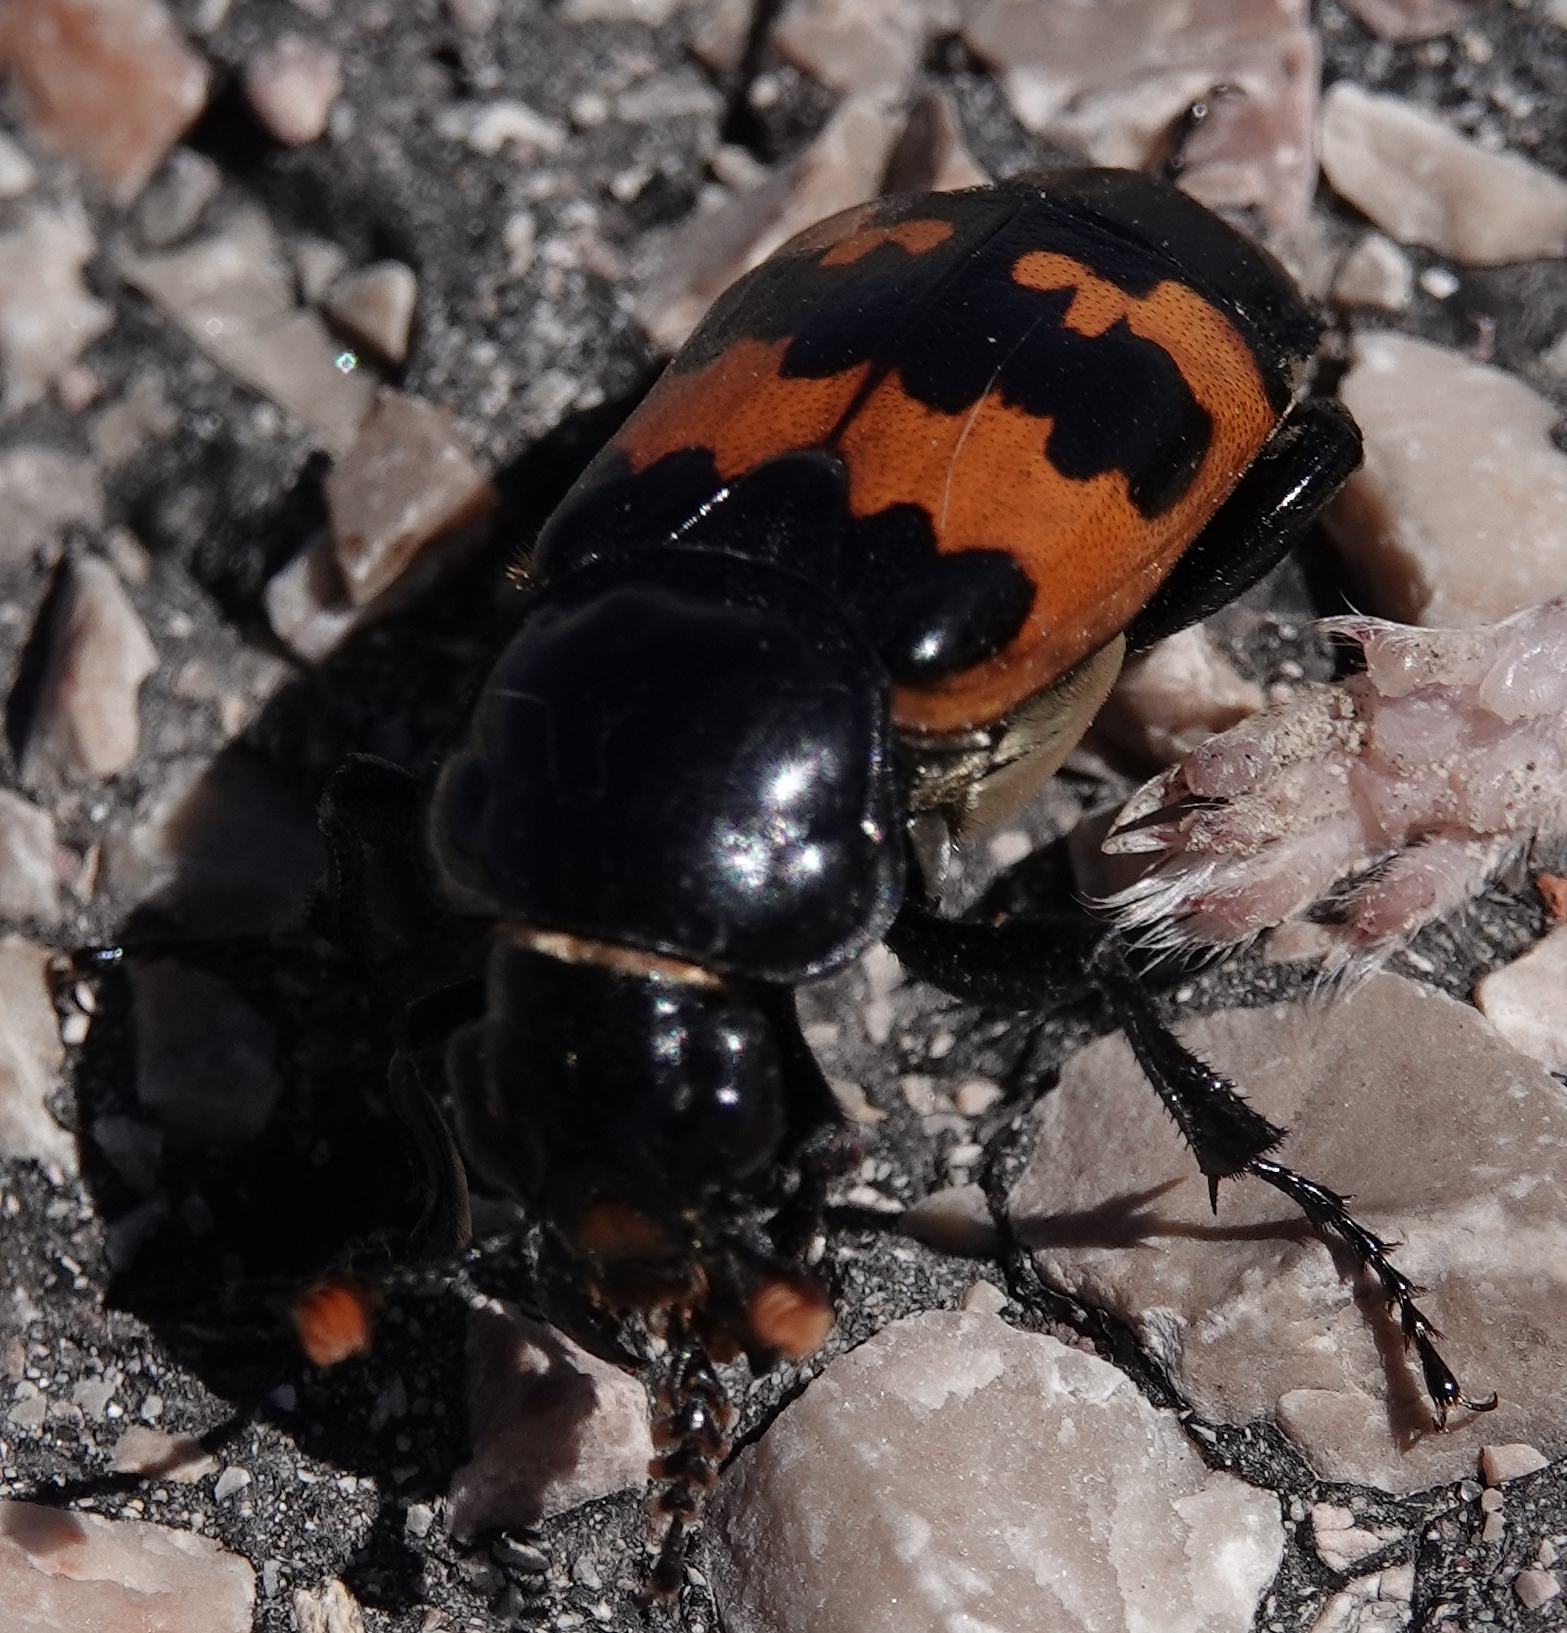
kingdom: Animalia
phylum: Arthropoda
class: Insecta
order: Coleoptera
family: Staphylinidae
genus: Nicrophorus
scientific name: Nicrophorus marginatus
